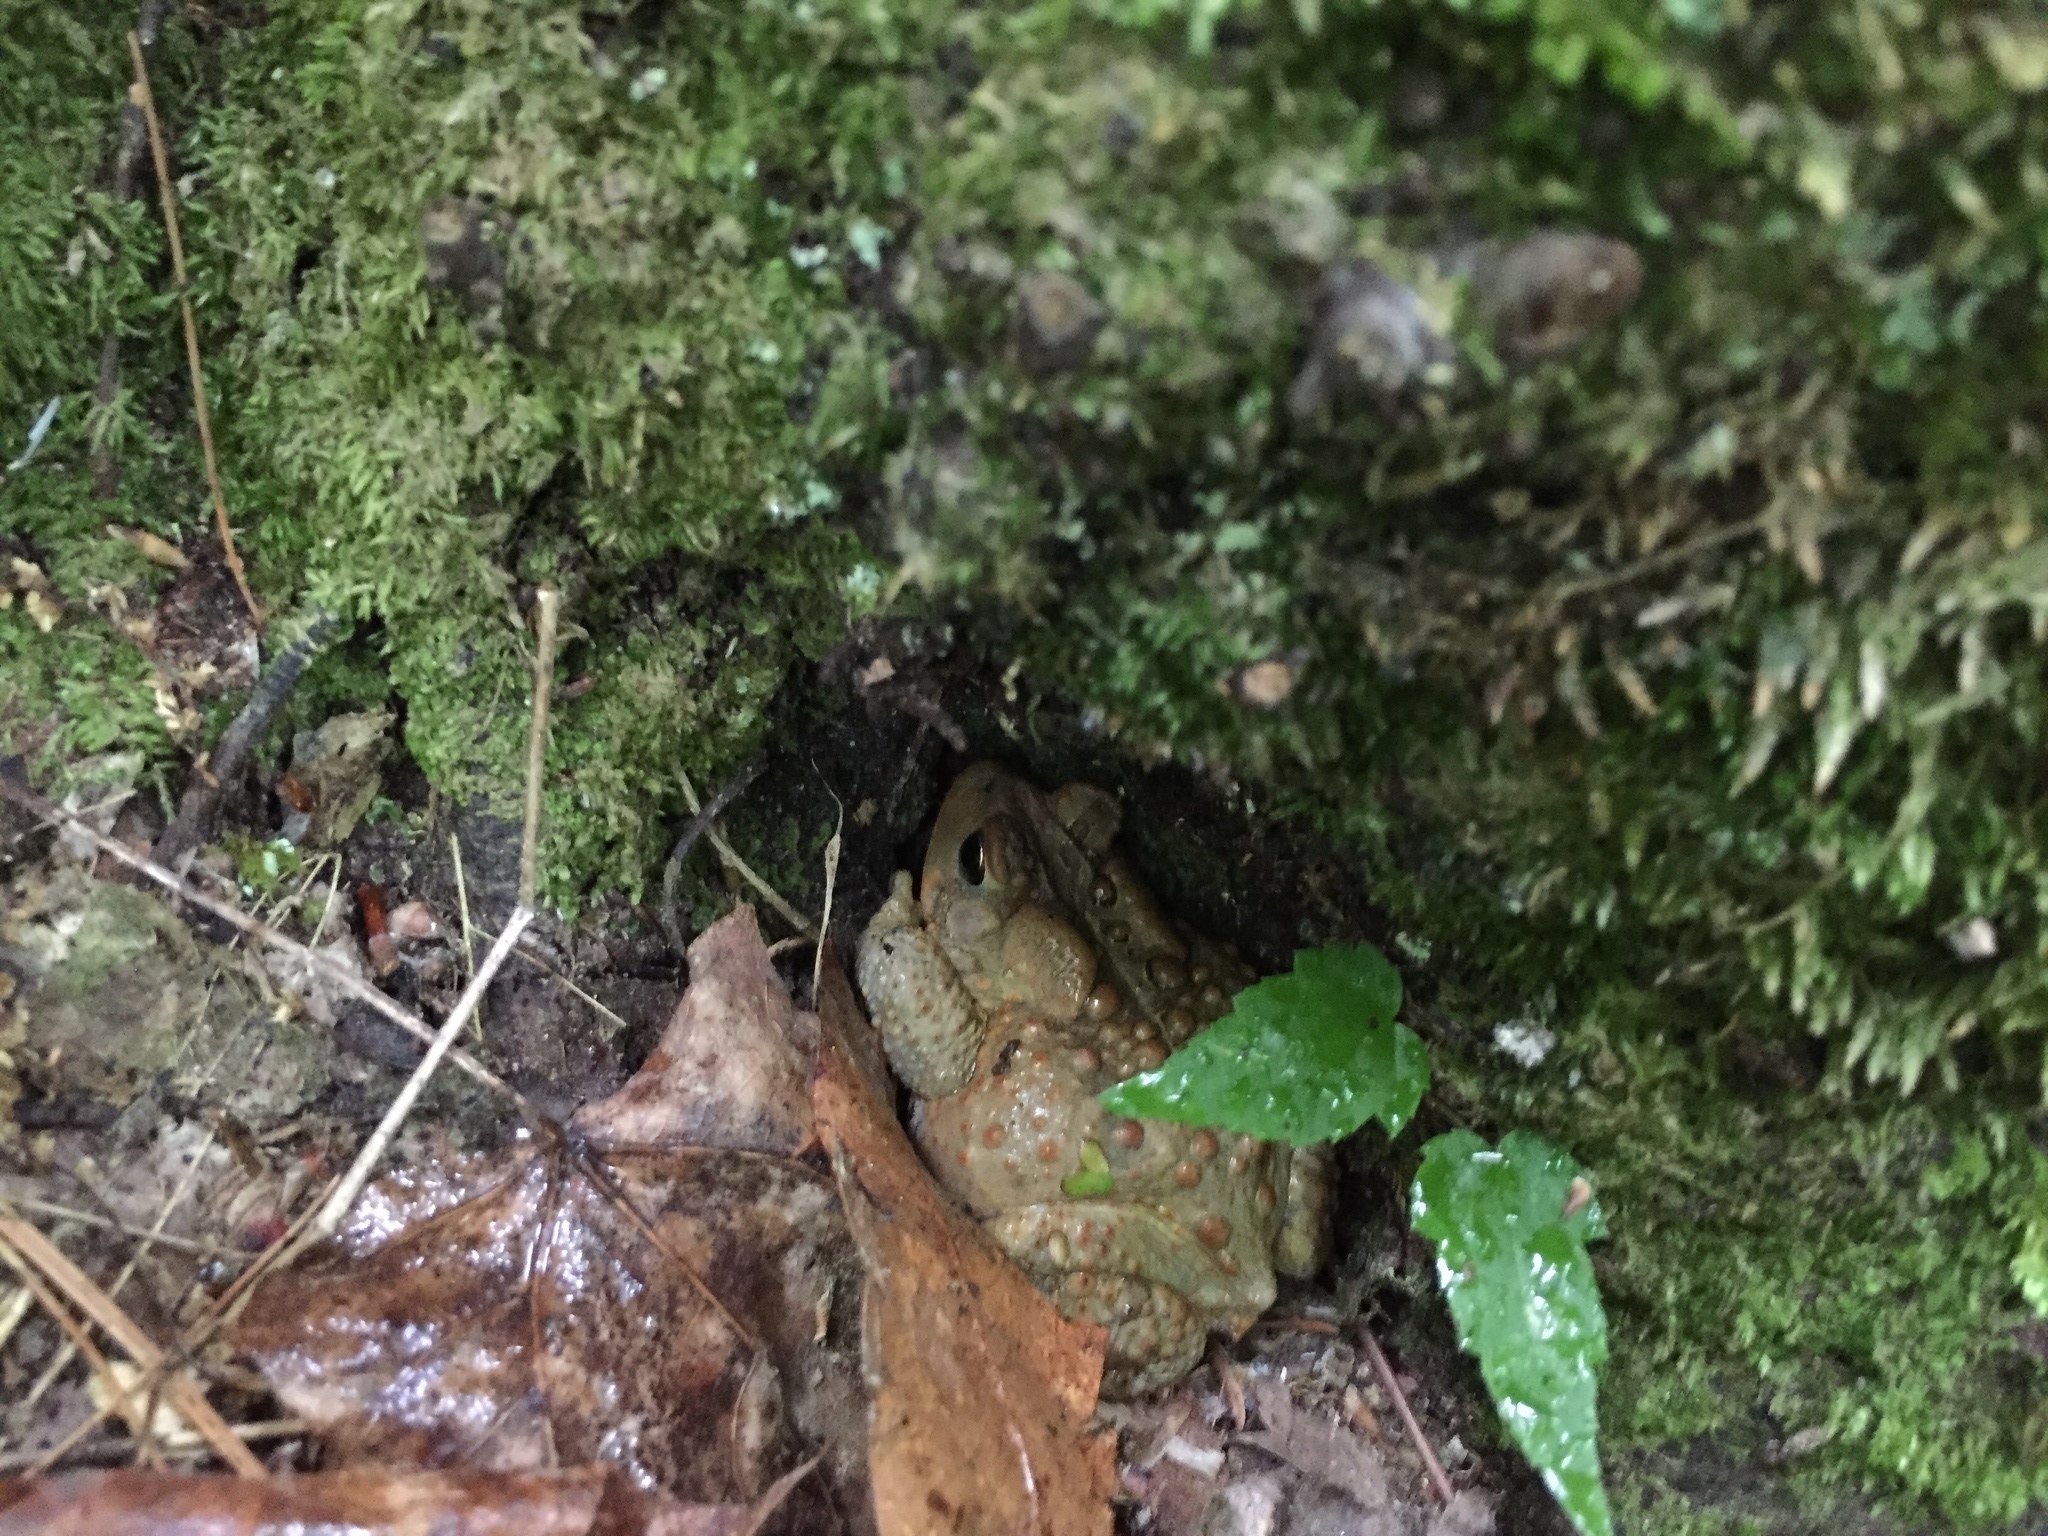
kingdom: Animalia
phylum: Chordata
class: Amphibia
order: Anura
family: Bufonidae
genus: Anaxyrus
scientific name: Anaxyrus americanus
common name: American toad
